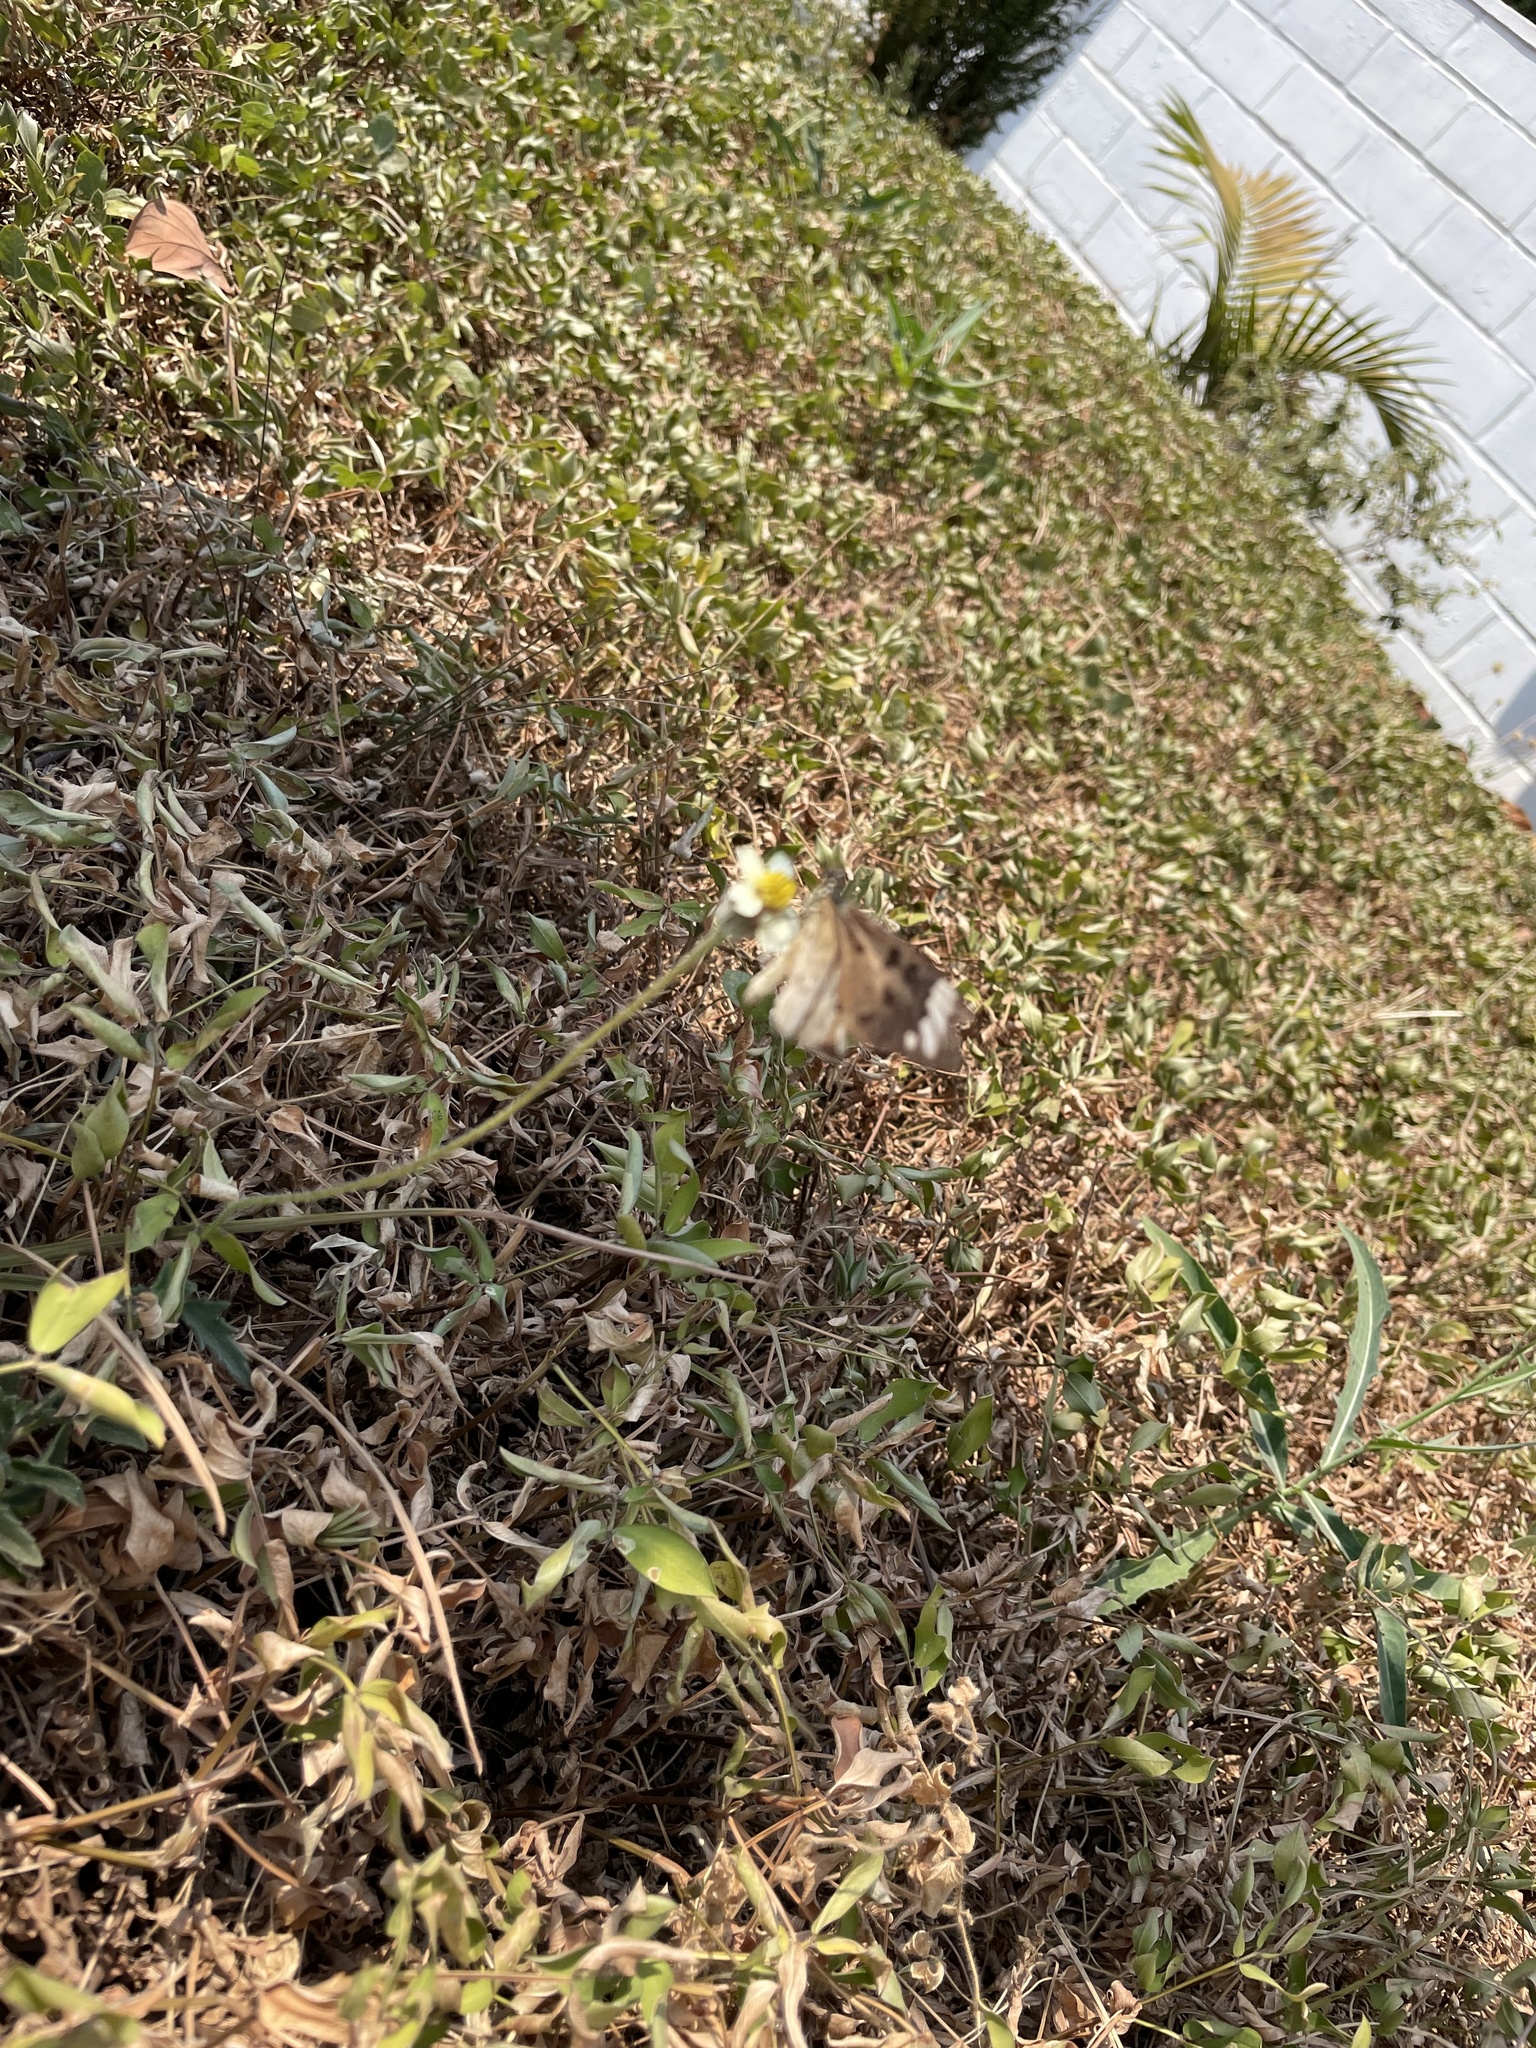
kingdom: Animalia
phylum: Arthropoda
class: Insecta
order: Lepidoptera
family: Nymphalidae
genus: Acraea
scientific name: Acraea Telchinia encedon
